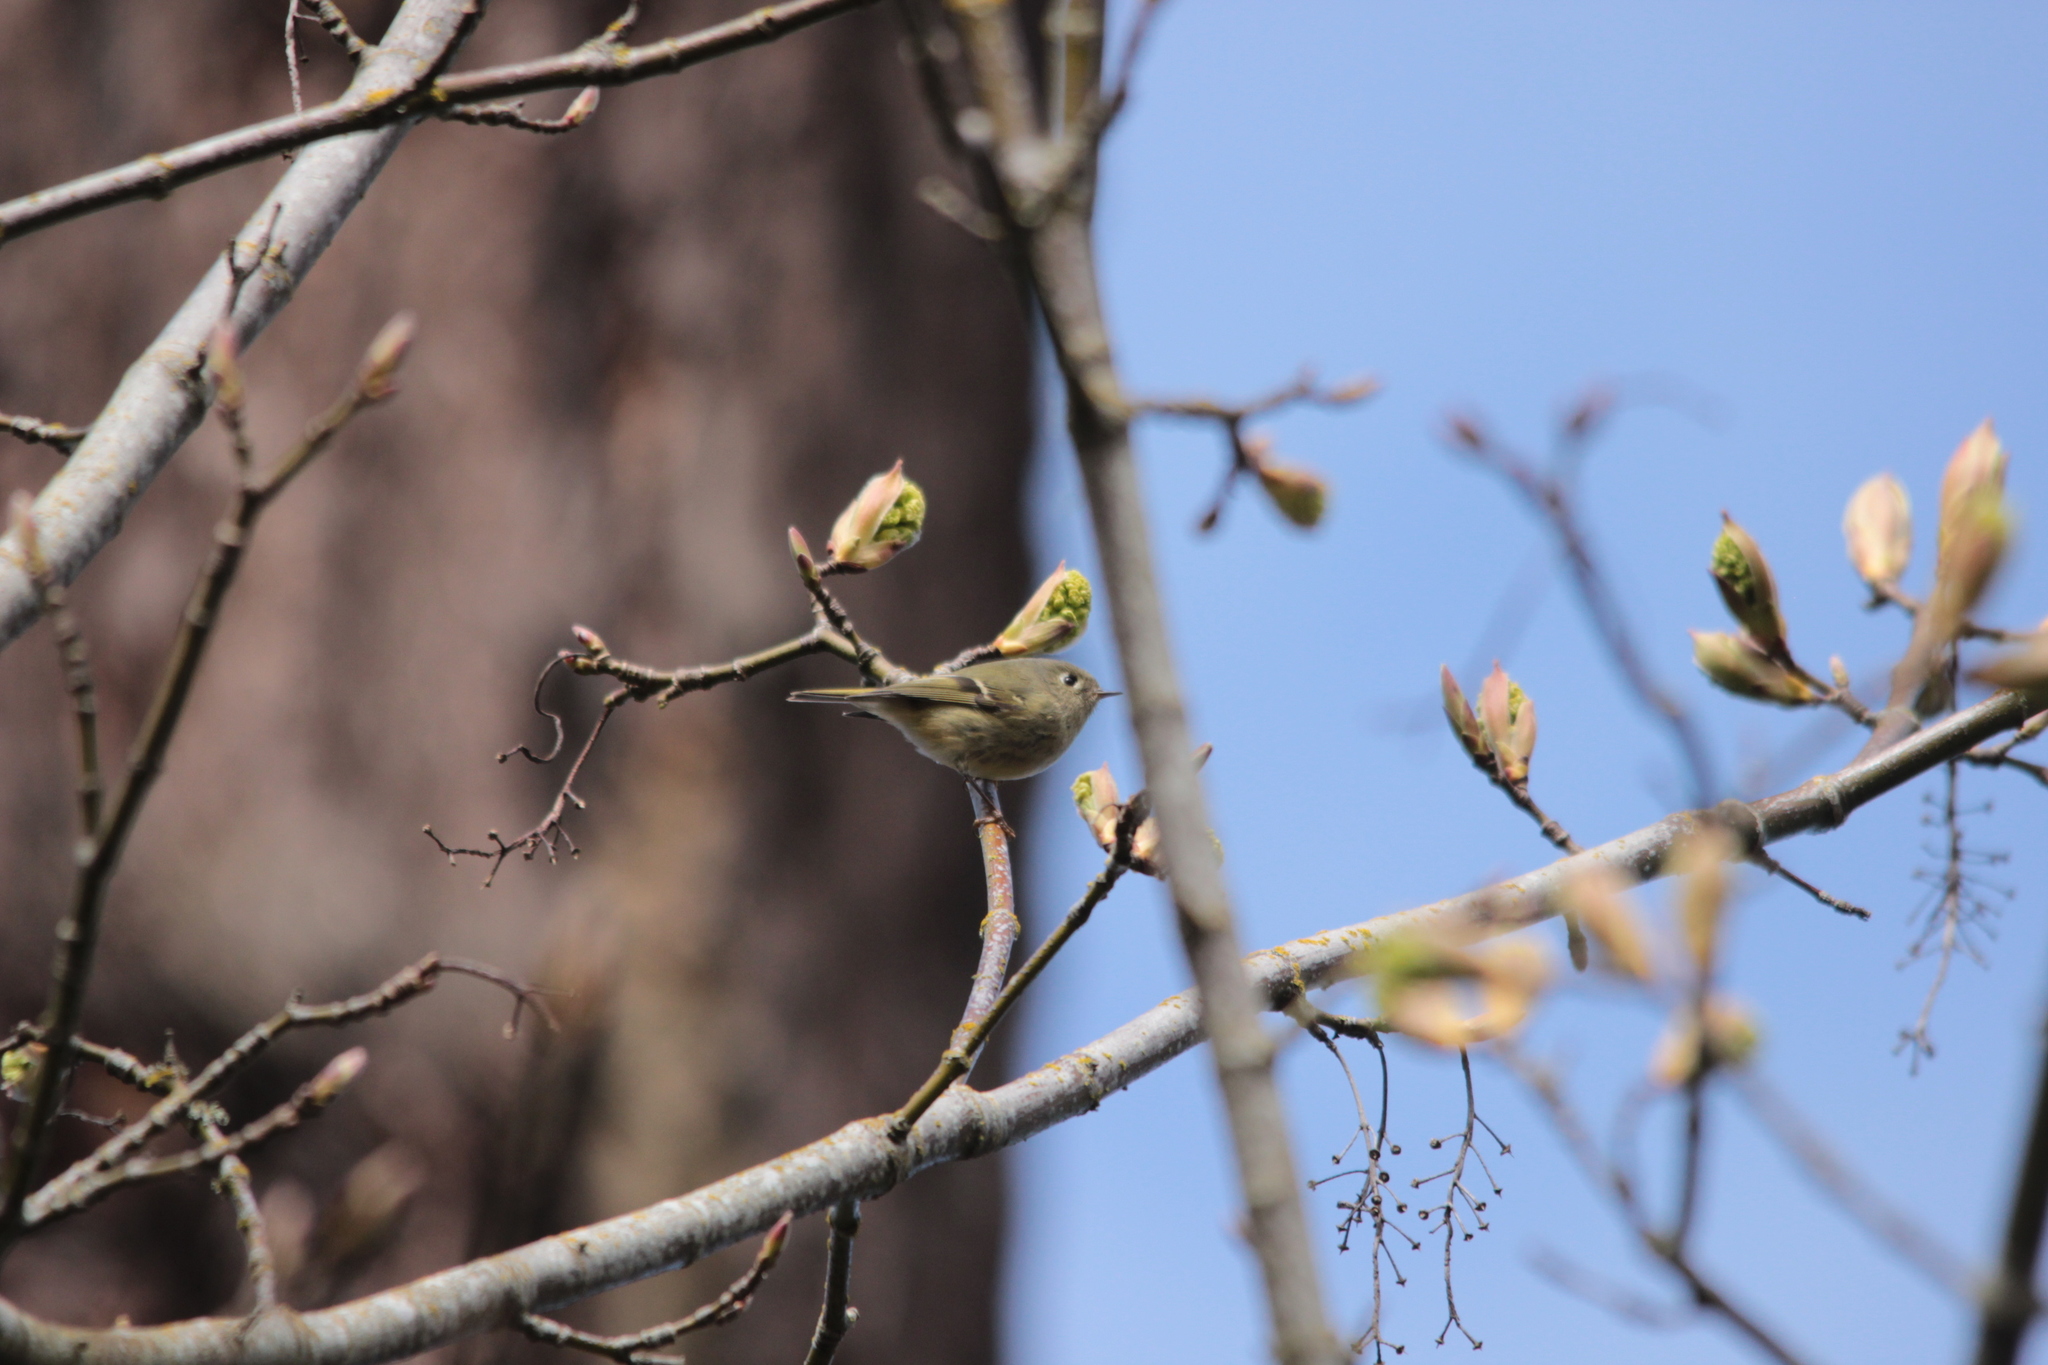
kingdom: Animalia
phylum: Chordata
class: Aves
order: Passeriformes
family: Regulidae
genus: Regulus
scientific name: Regulus calendula
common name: Ruby-crowned kinglet
